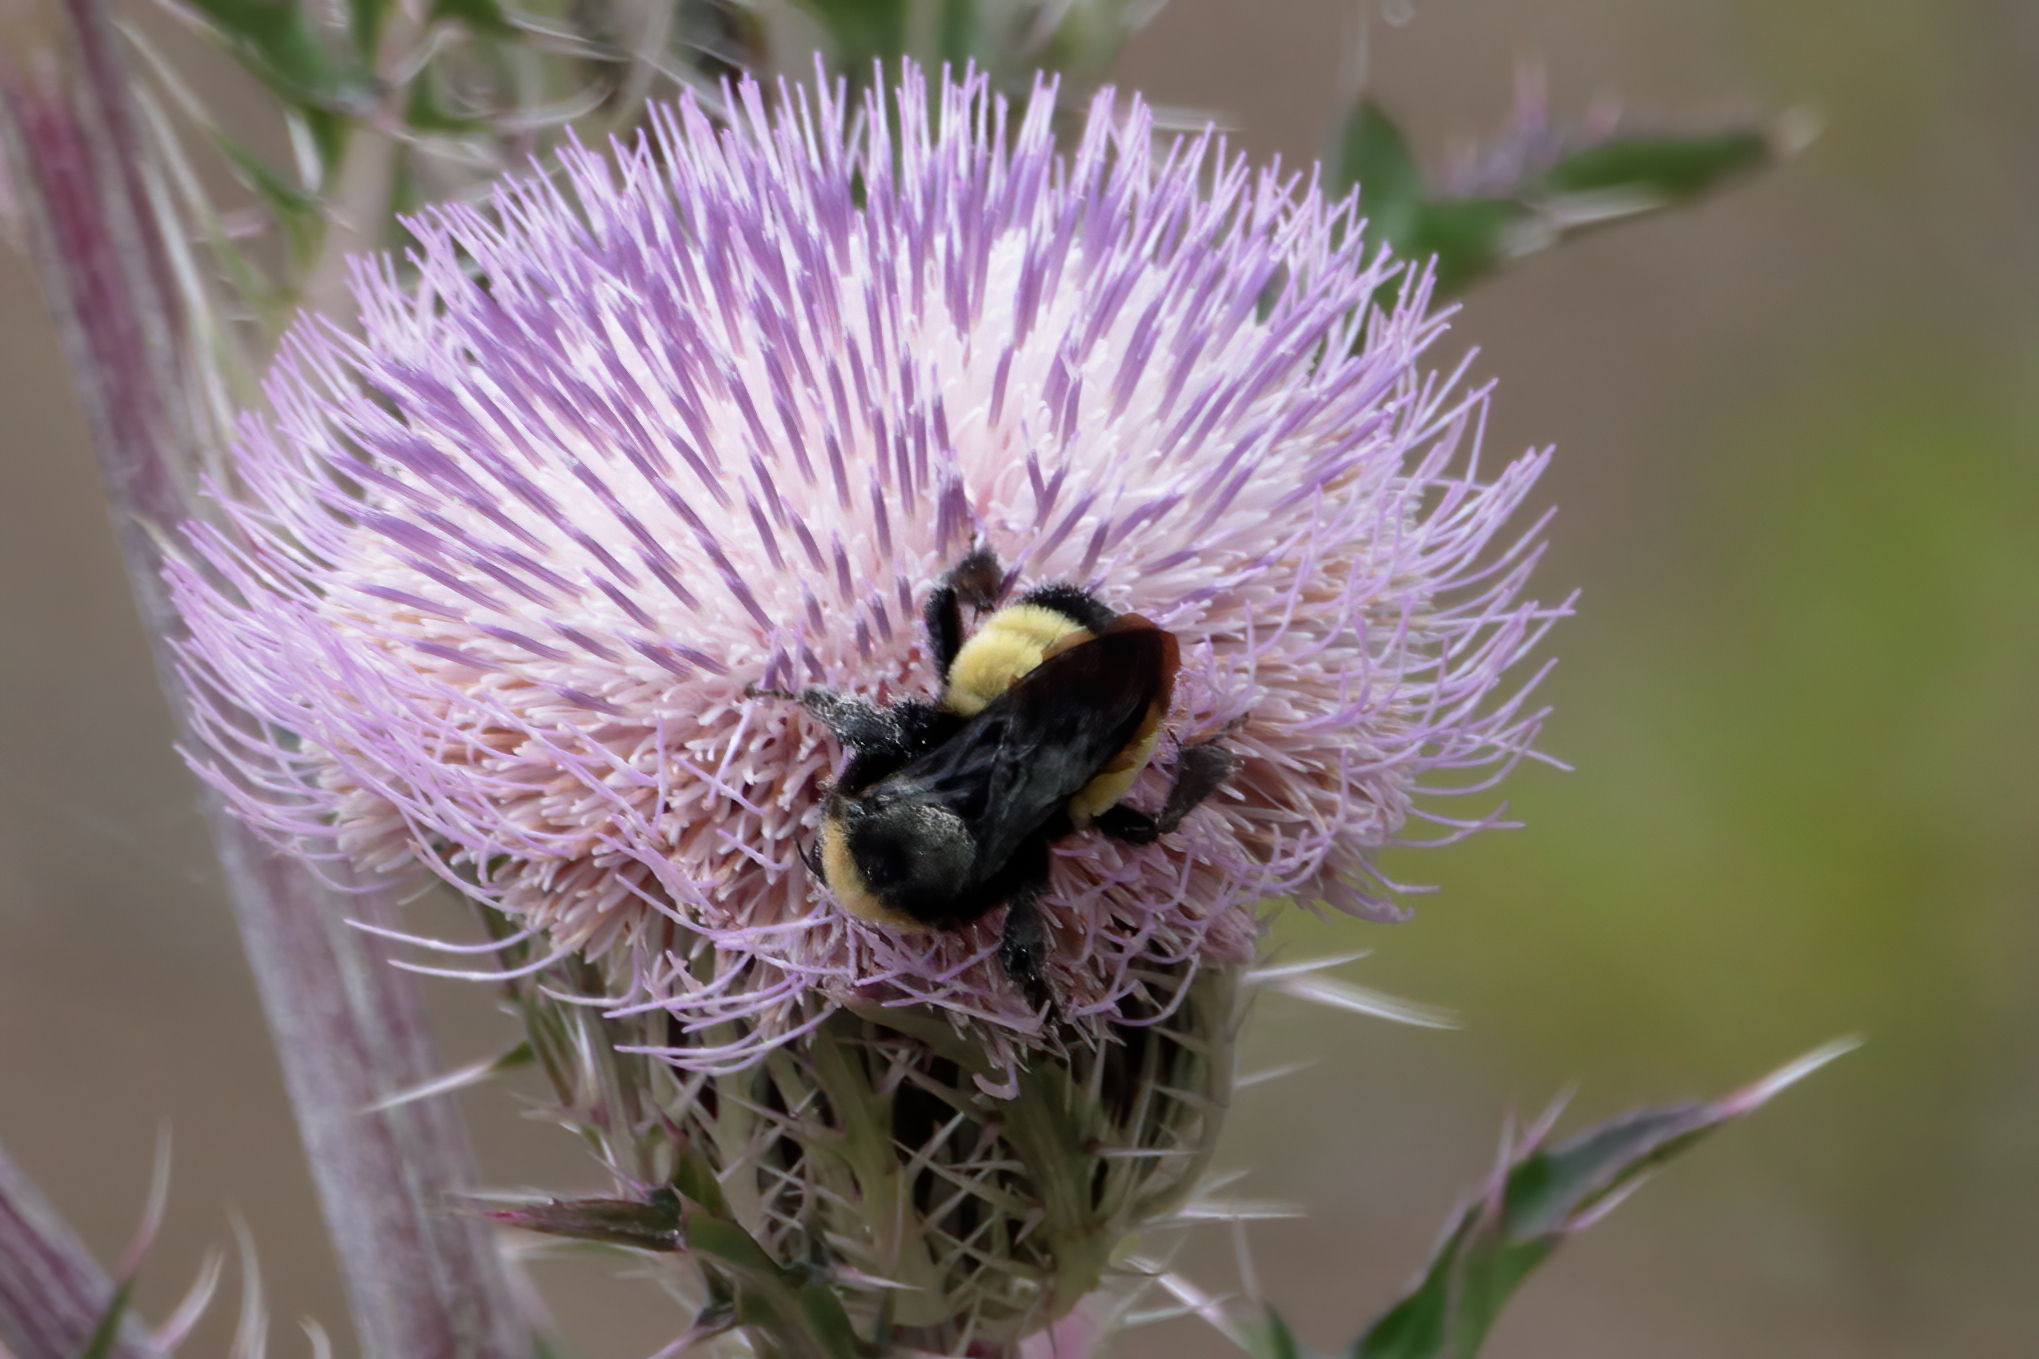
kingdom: Animalia
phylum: Arthropoda
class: Insecta
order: Hymenoptera
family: Apidae
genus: Bombus
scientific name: Bombus pensylvanicus
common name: Bumble bee
